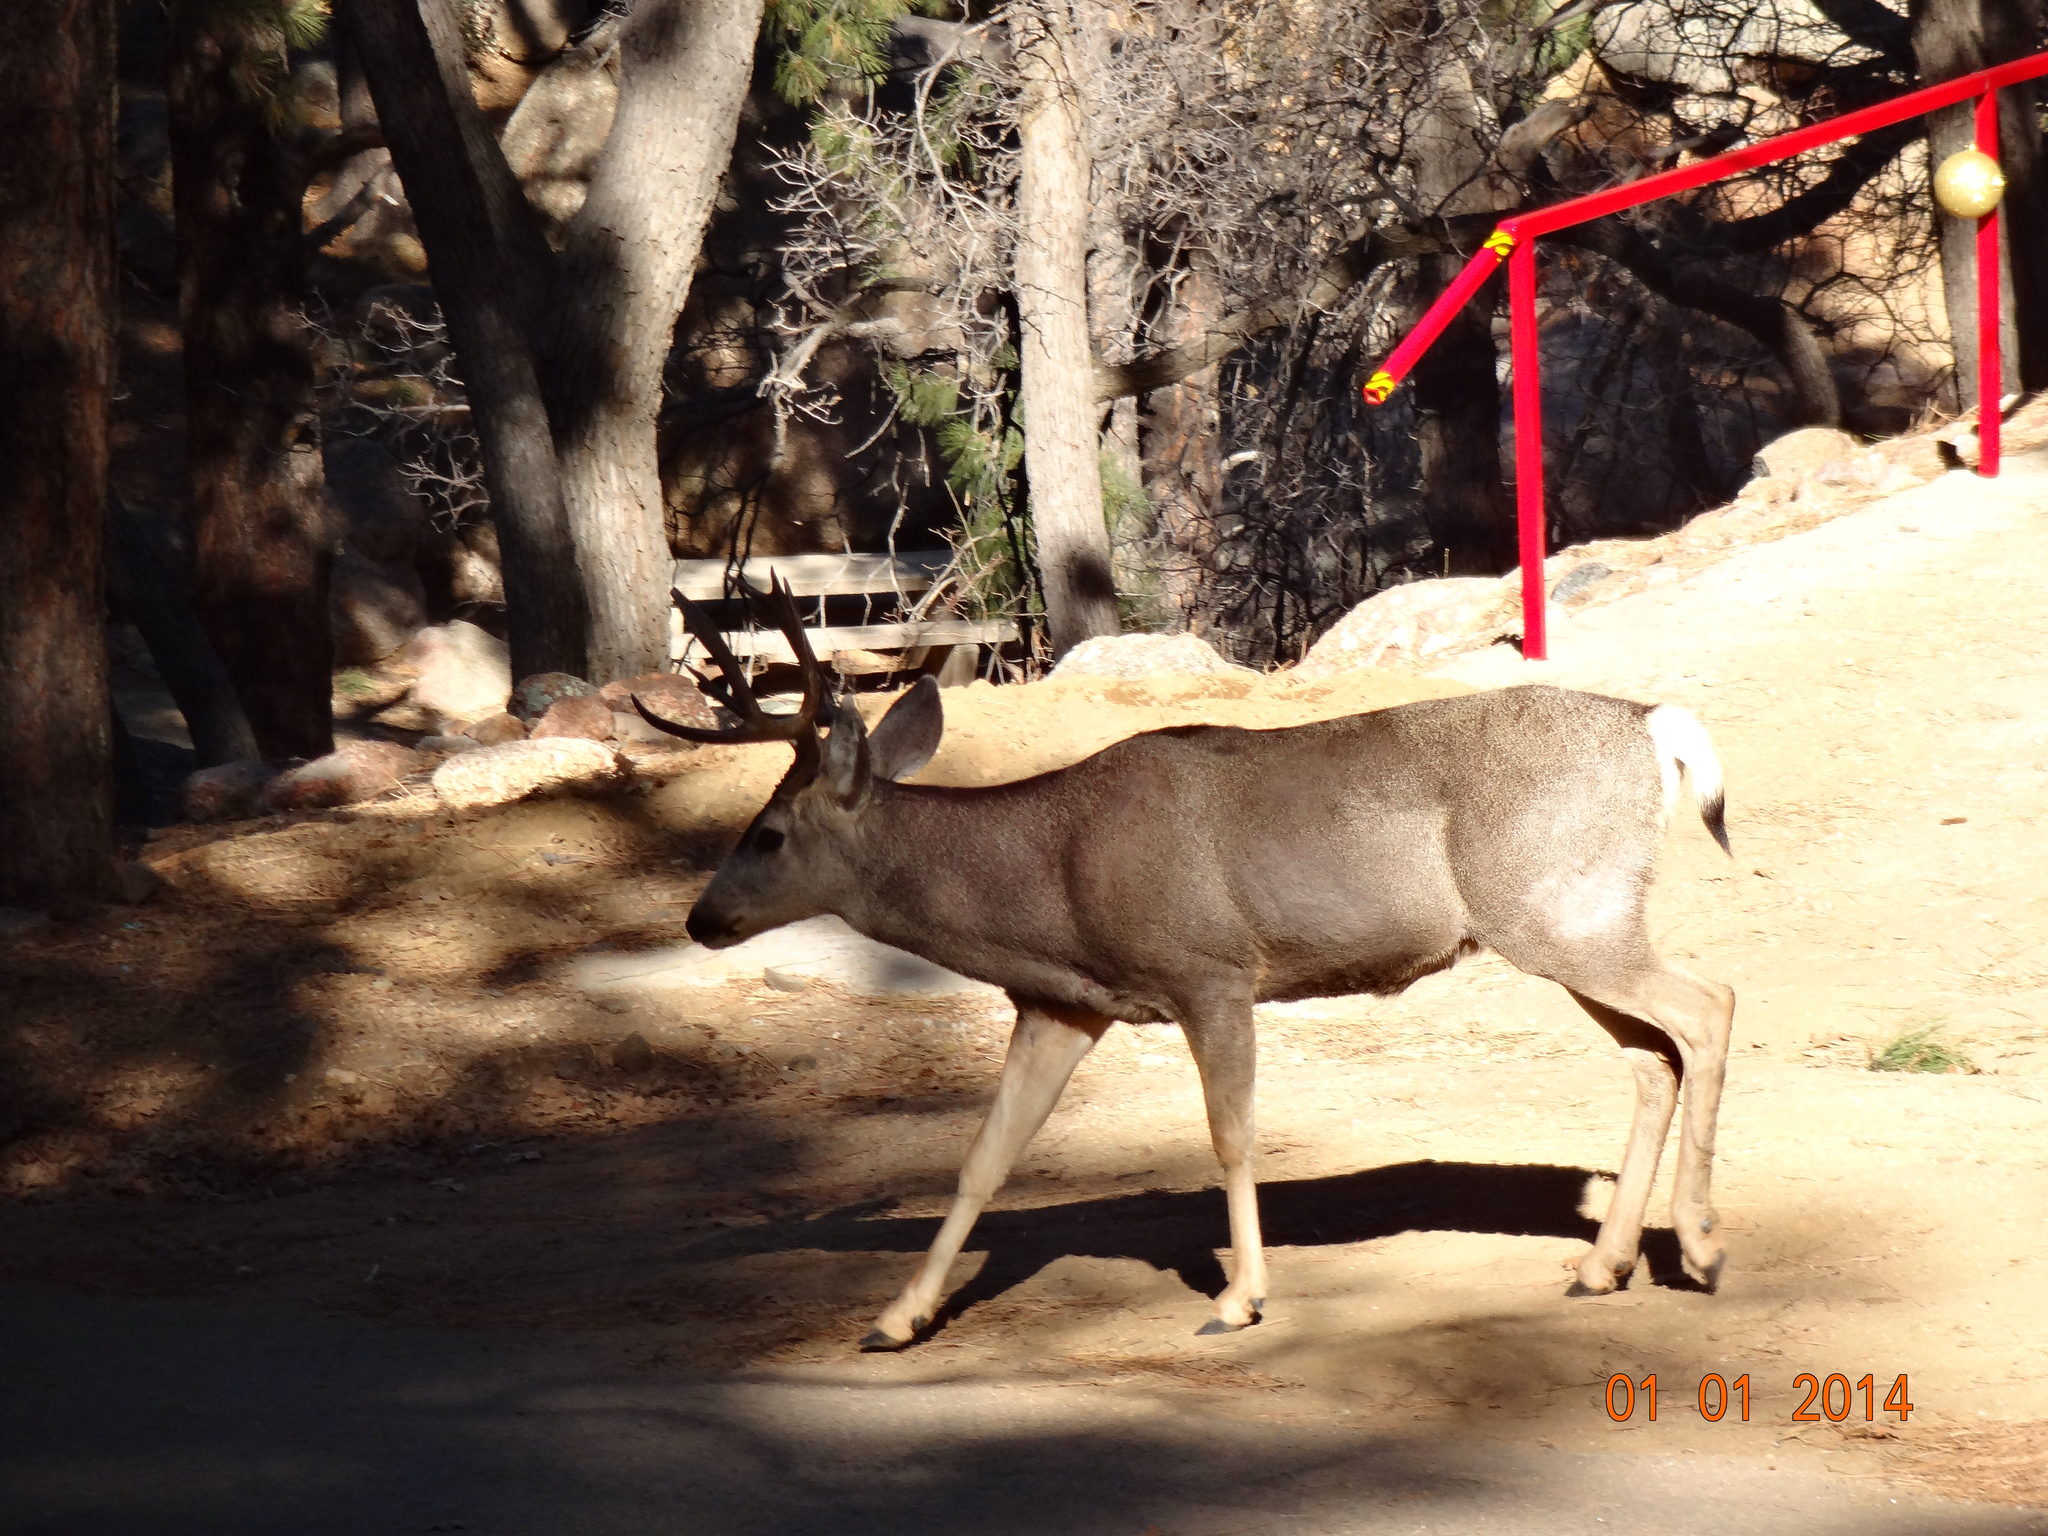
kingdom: Animalia
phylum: Chordata
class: Mammalia
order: Artiodactyla
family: Cervidae
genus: Odocoileus
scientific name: Odocoileus hemionus
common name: Mule deer
